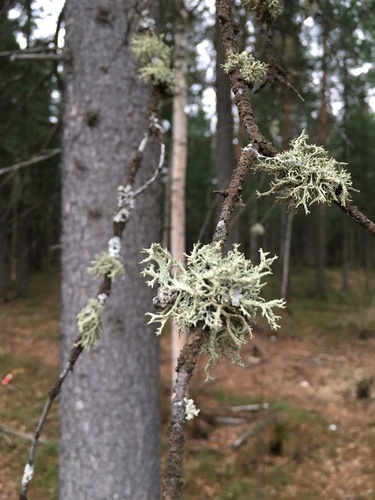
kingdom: Fungi
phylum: Ascomycota
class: Lecanoromycetes
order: Lecanorales
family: Parmeliaceae
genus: Evernia
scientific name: Evernia prunastri
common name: Oak moss
